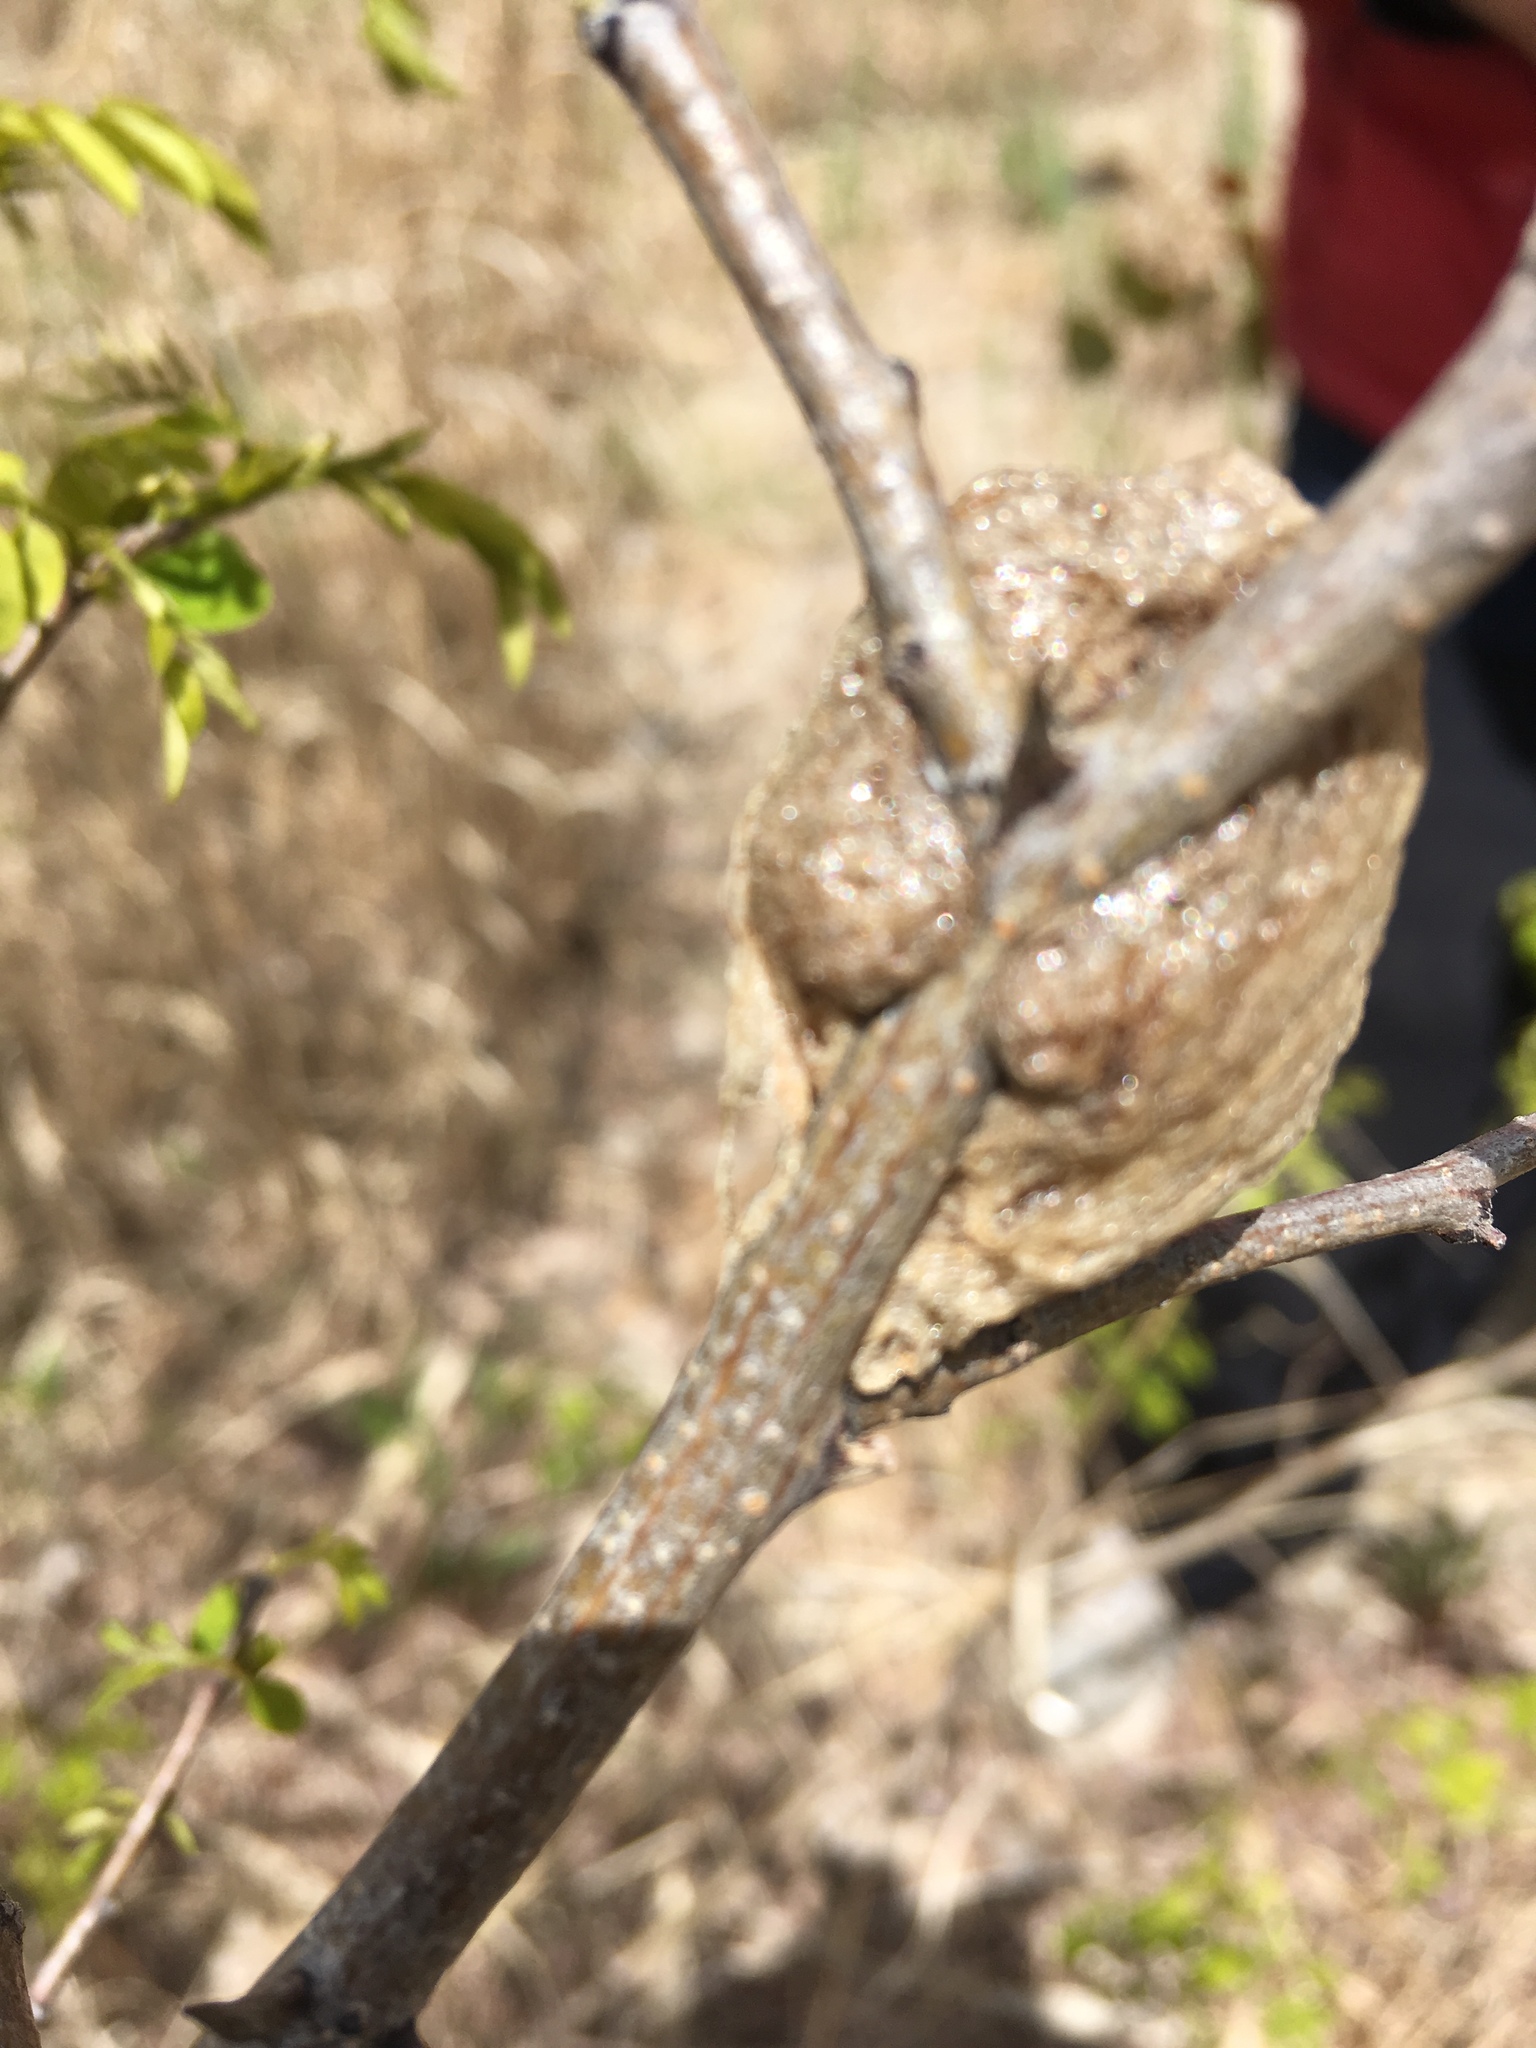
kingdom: Animalia
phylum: Arthropoda
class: Insecta
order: Mantodea
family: Mantidae
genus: Tenodera
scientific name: Tenodera sinensis
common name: Chinese mantis
